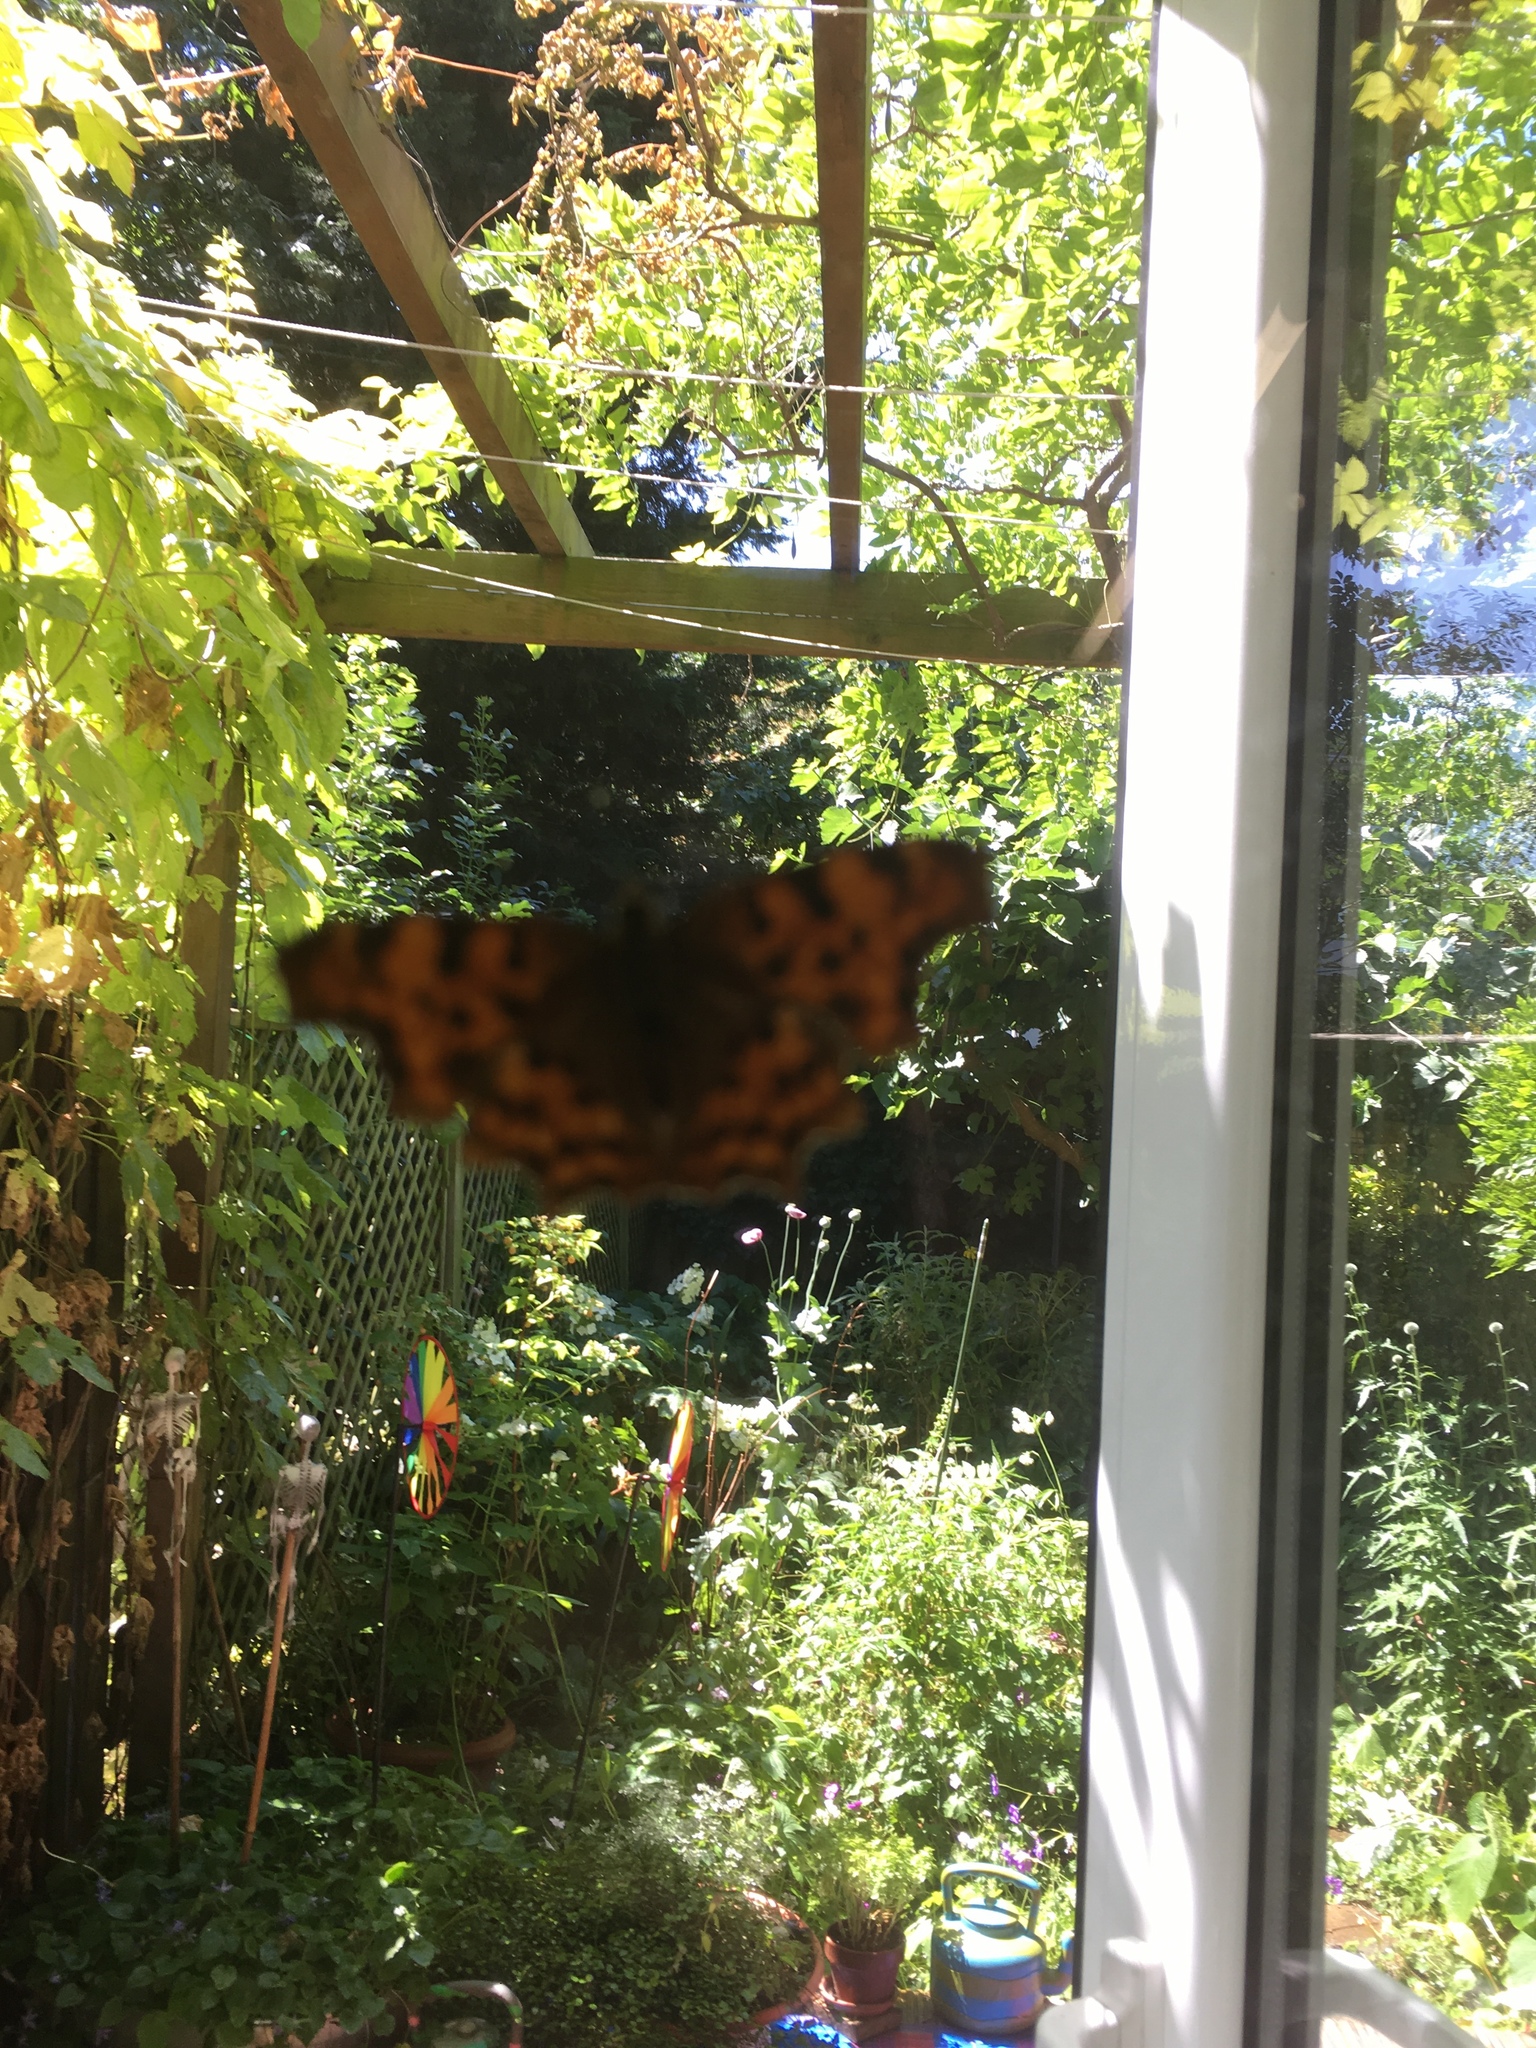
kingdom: Animalia
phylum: Arthropoda
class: Insecta
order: Lepidoptera
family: Nymphalidae
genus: Polygonia
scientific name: Polygonia c-album
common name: Comma
